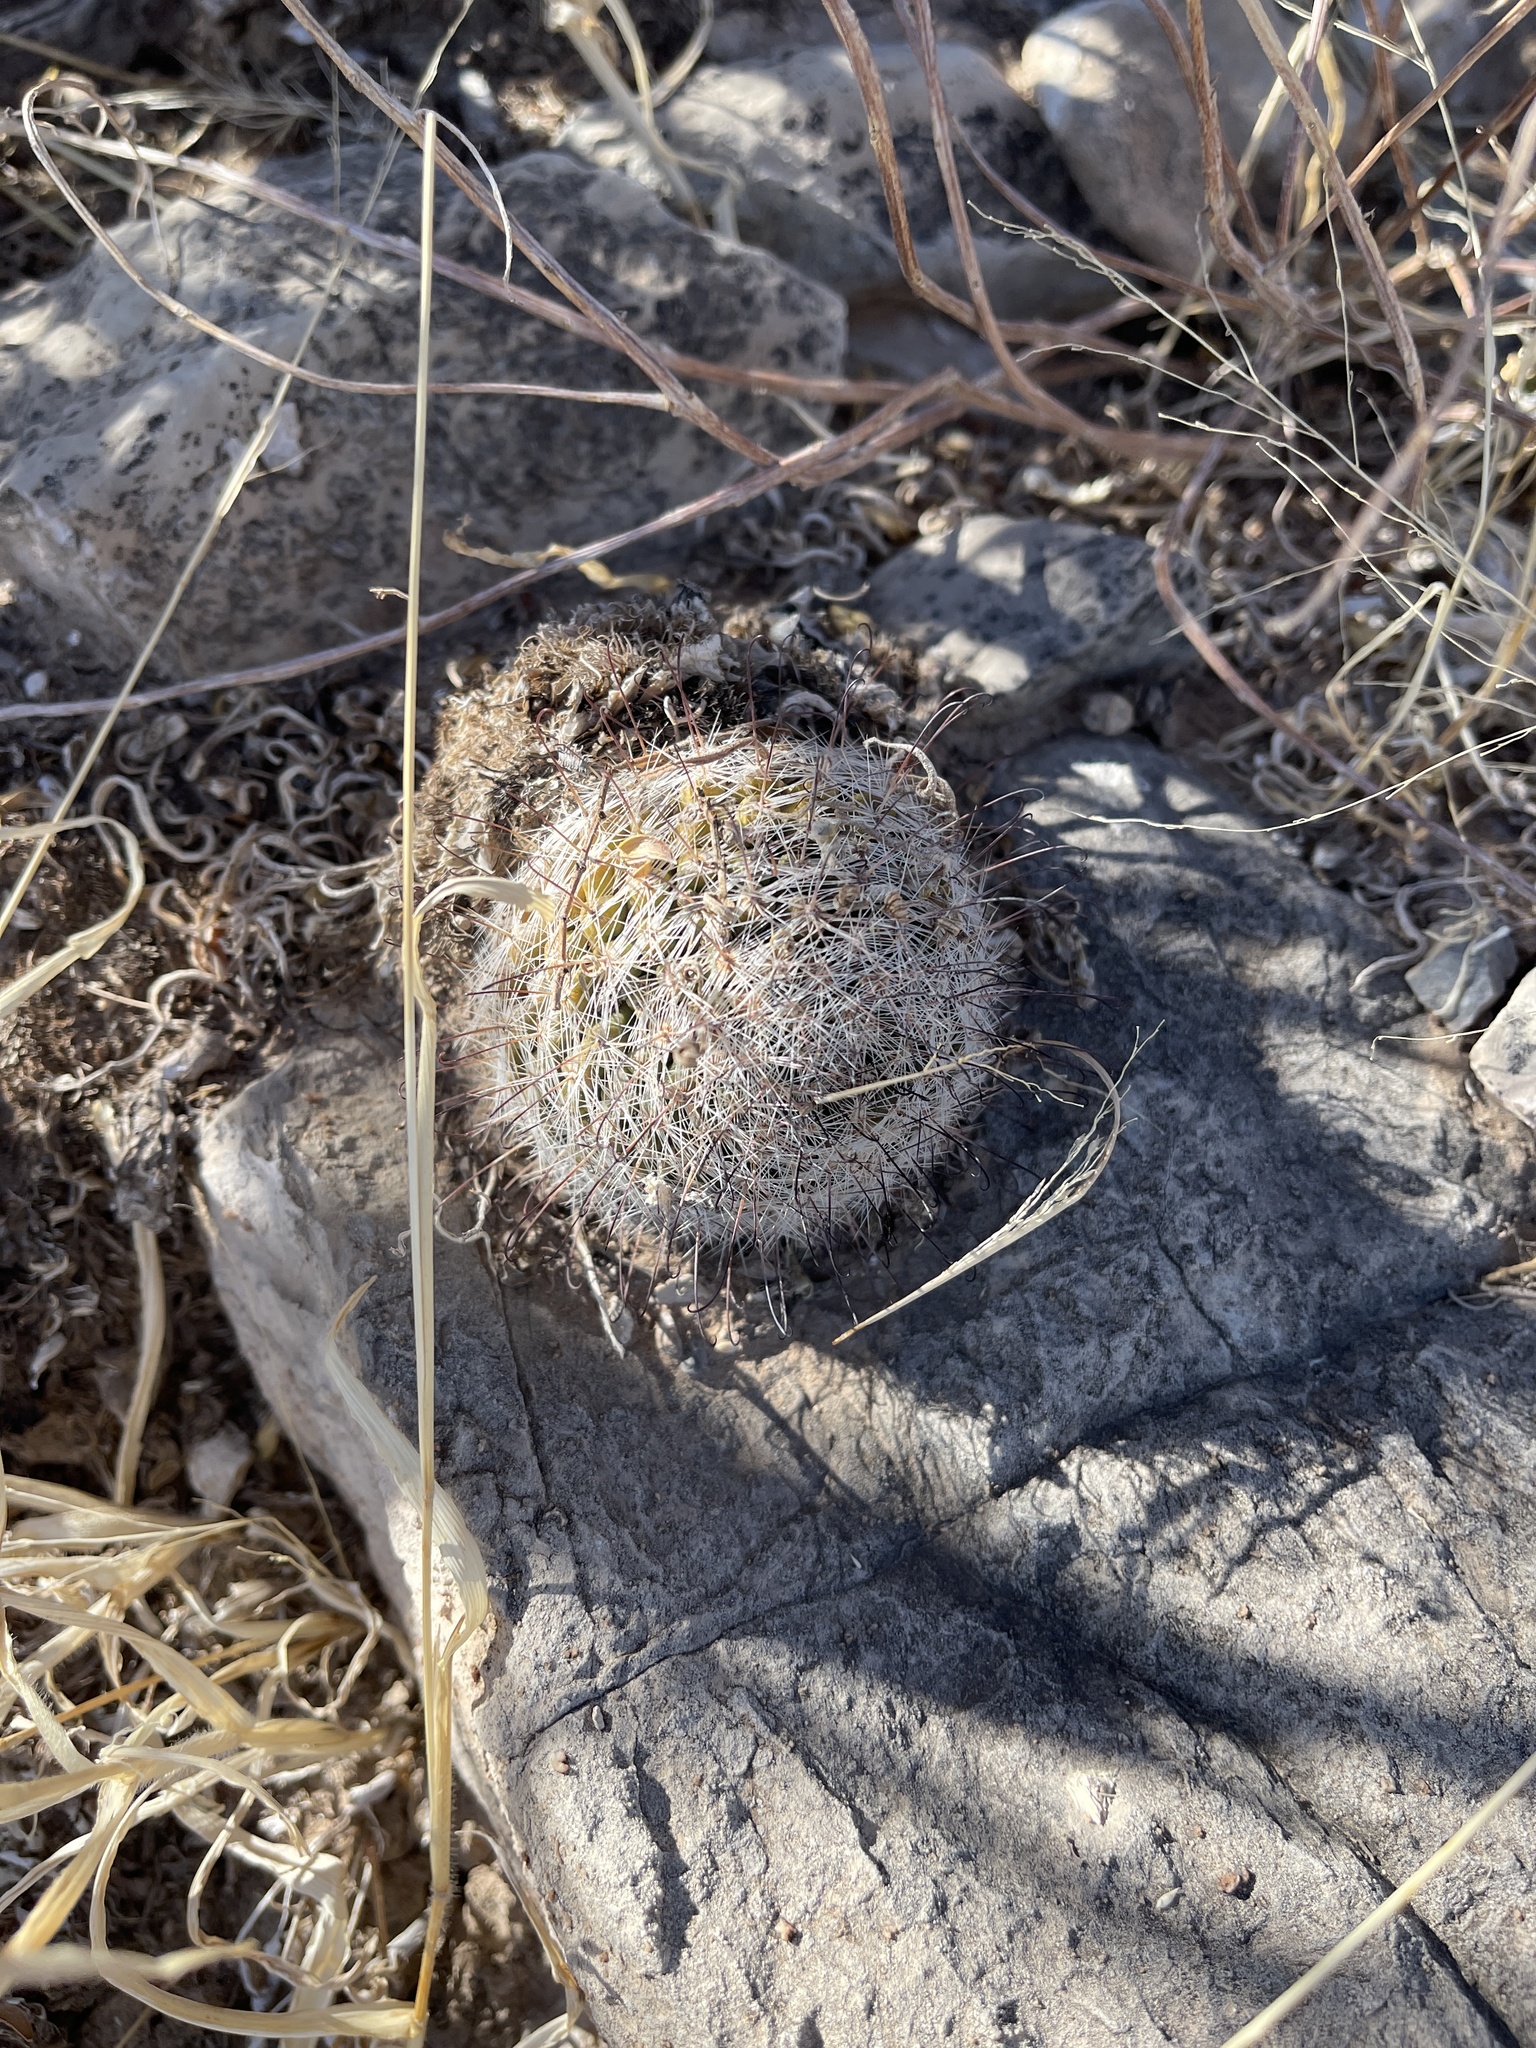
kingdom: Plantae
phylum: Tracheophyta
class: Magnoliopsida
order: Caryophyllales
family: Cactaceae
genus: Cochemiea
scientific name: Cochemiea grahamii
